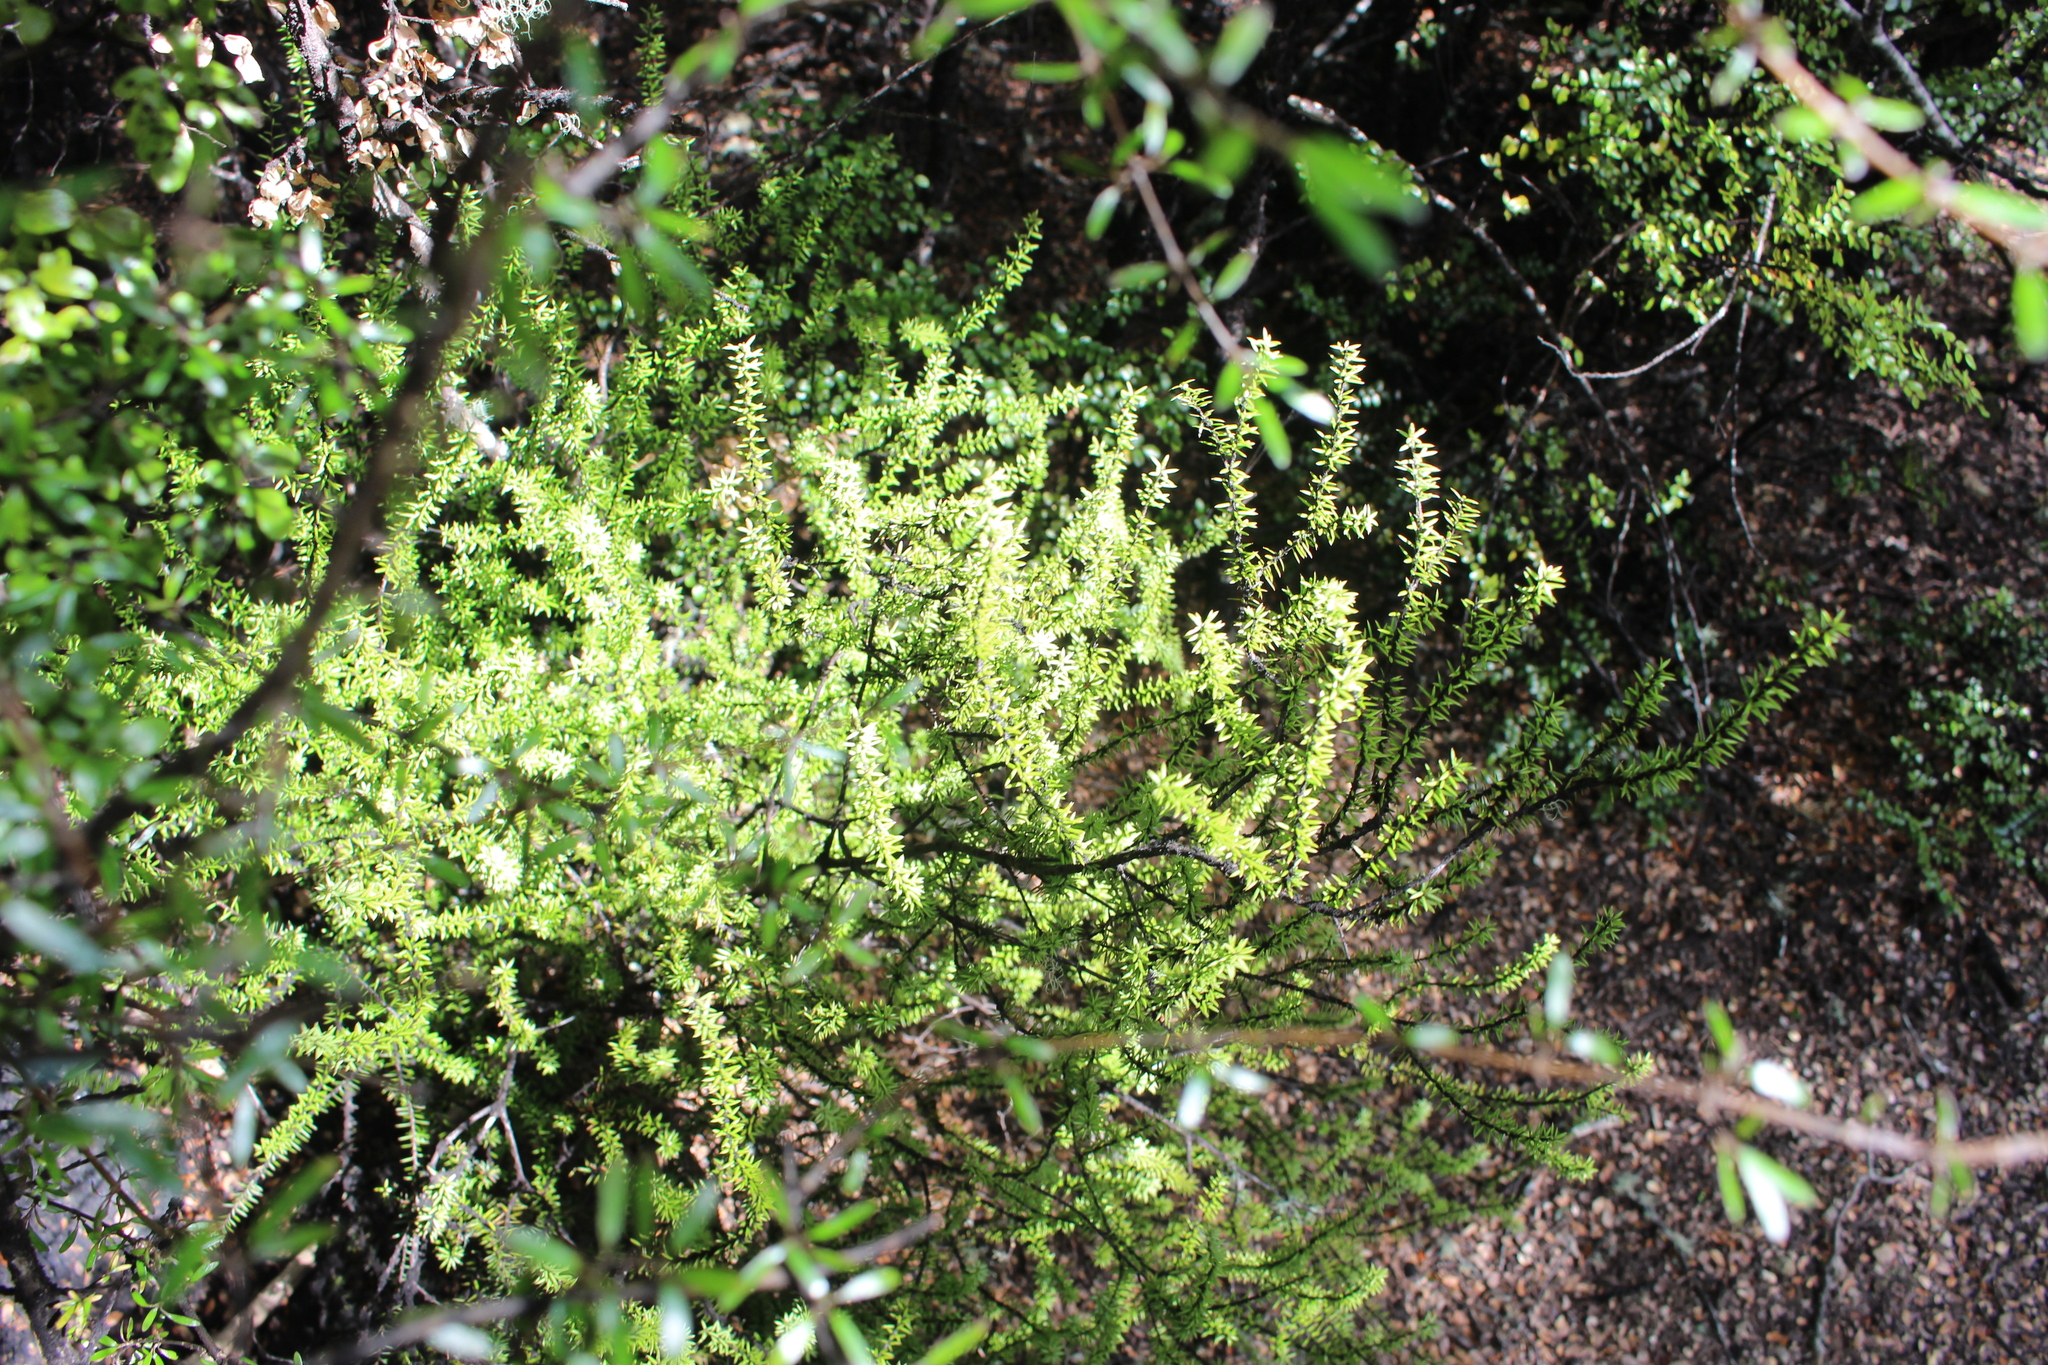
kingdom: Plantae
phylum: Tracheophyta
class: Magnoliopsida
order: Ericales
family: Ericaceae
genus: Leptecophylla
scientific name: Leptecophylla juniperina
